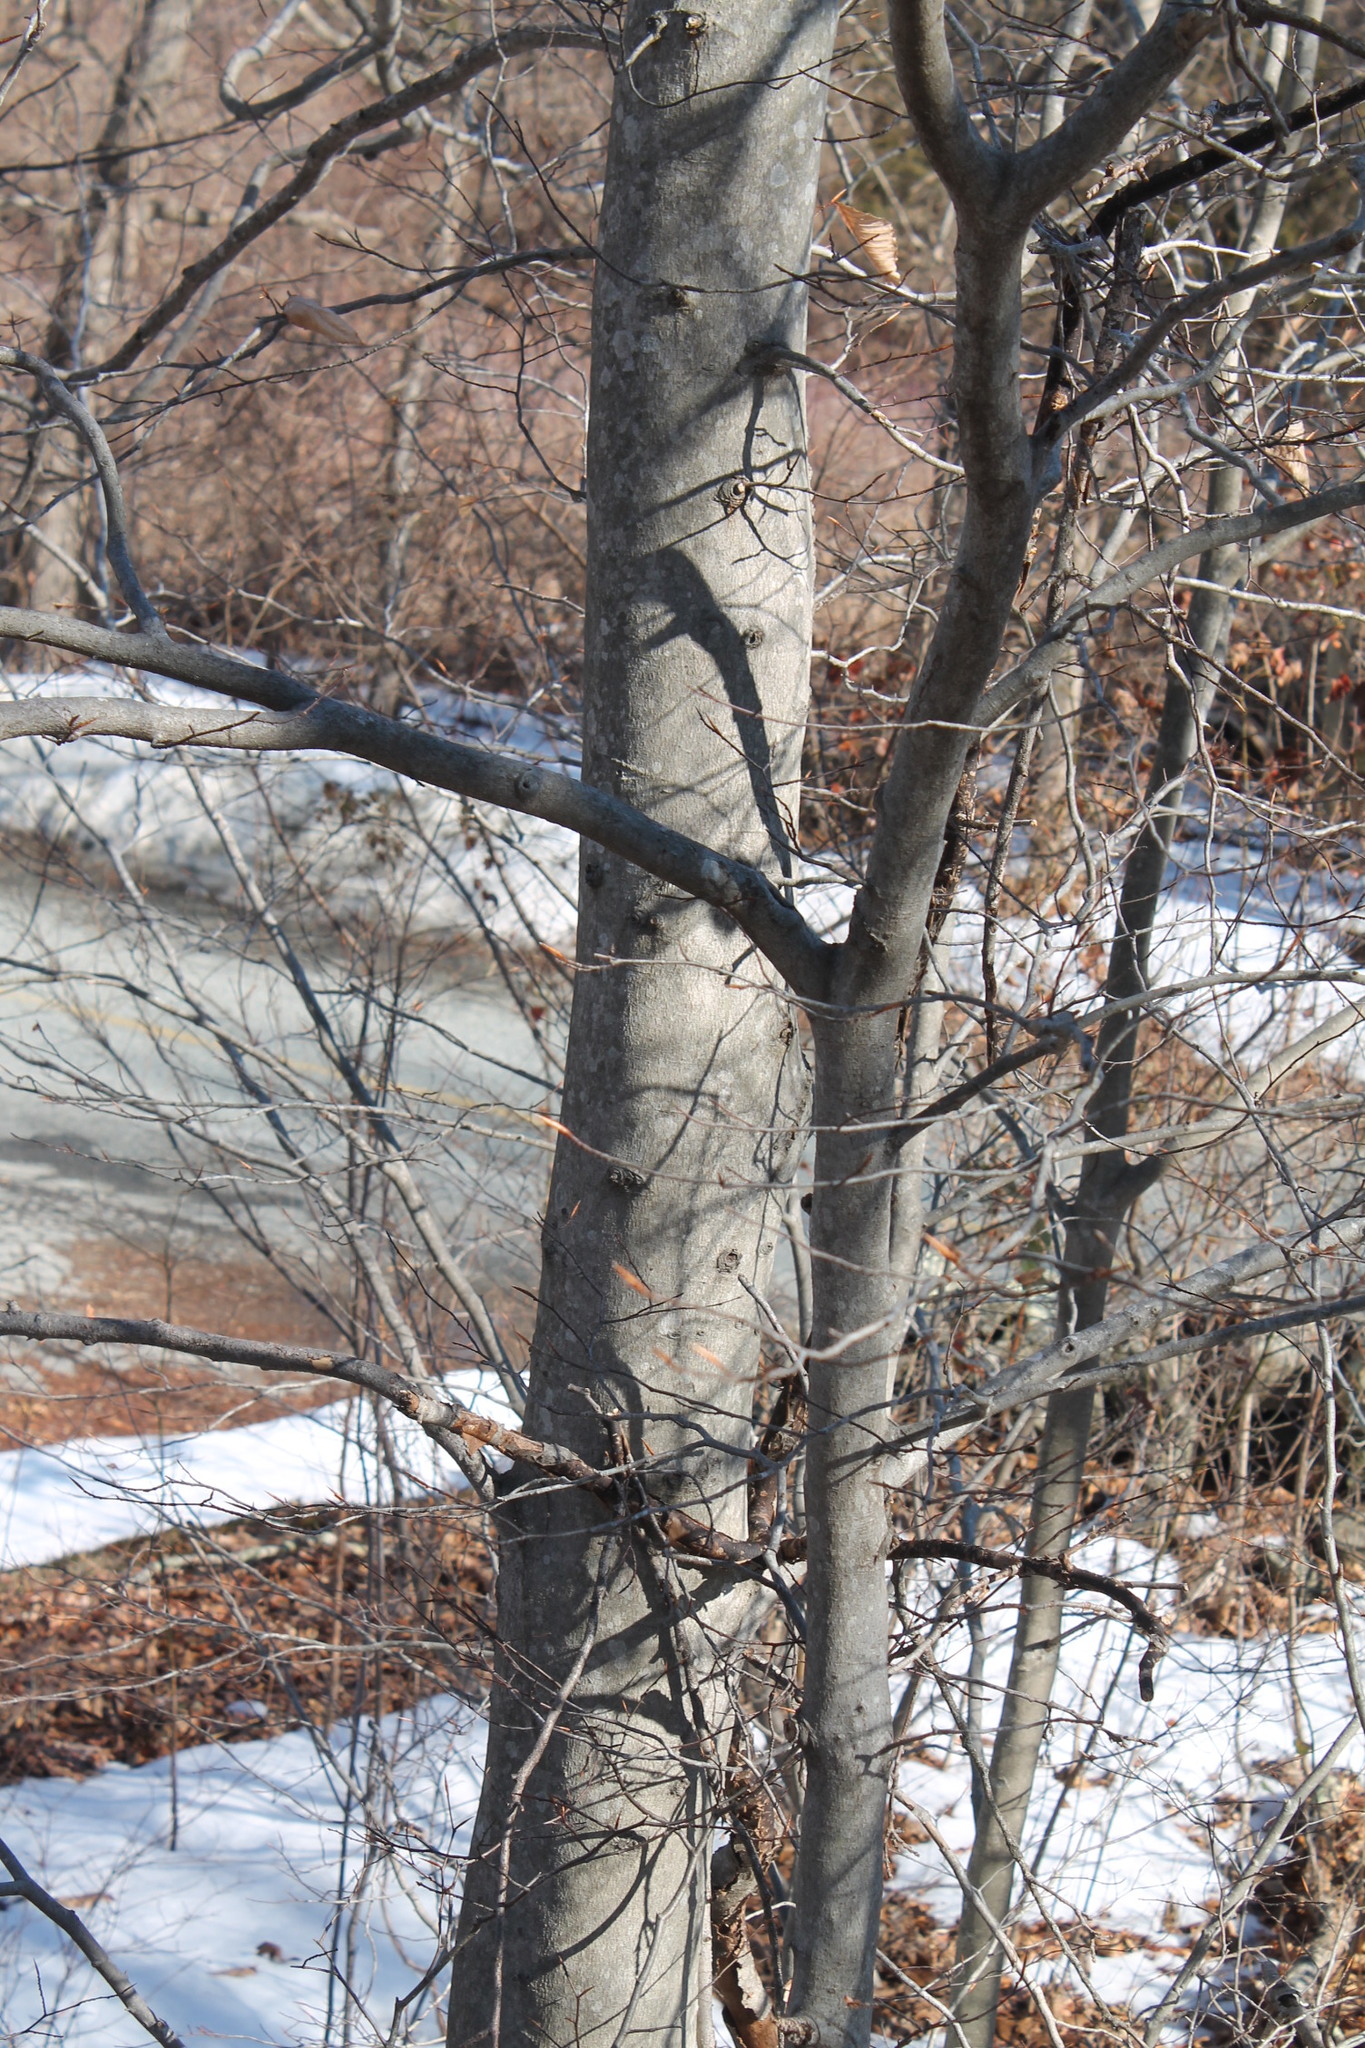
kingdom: Plantae
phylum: Tracheophyta
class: Magnoliopsida
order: Fagales
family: Fagaceae
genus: Fagus
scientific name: Fagus grandifolia
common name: American beech
